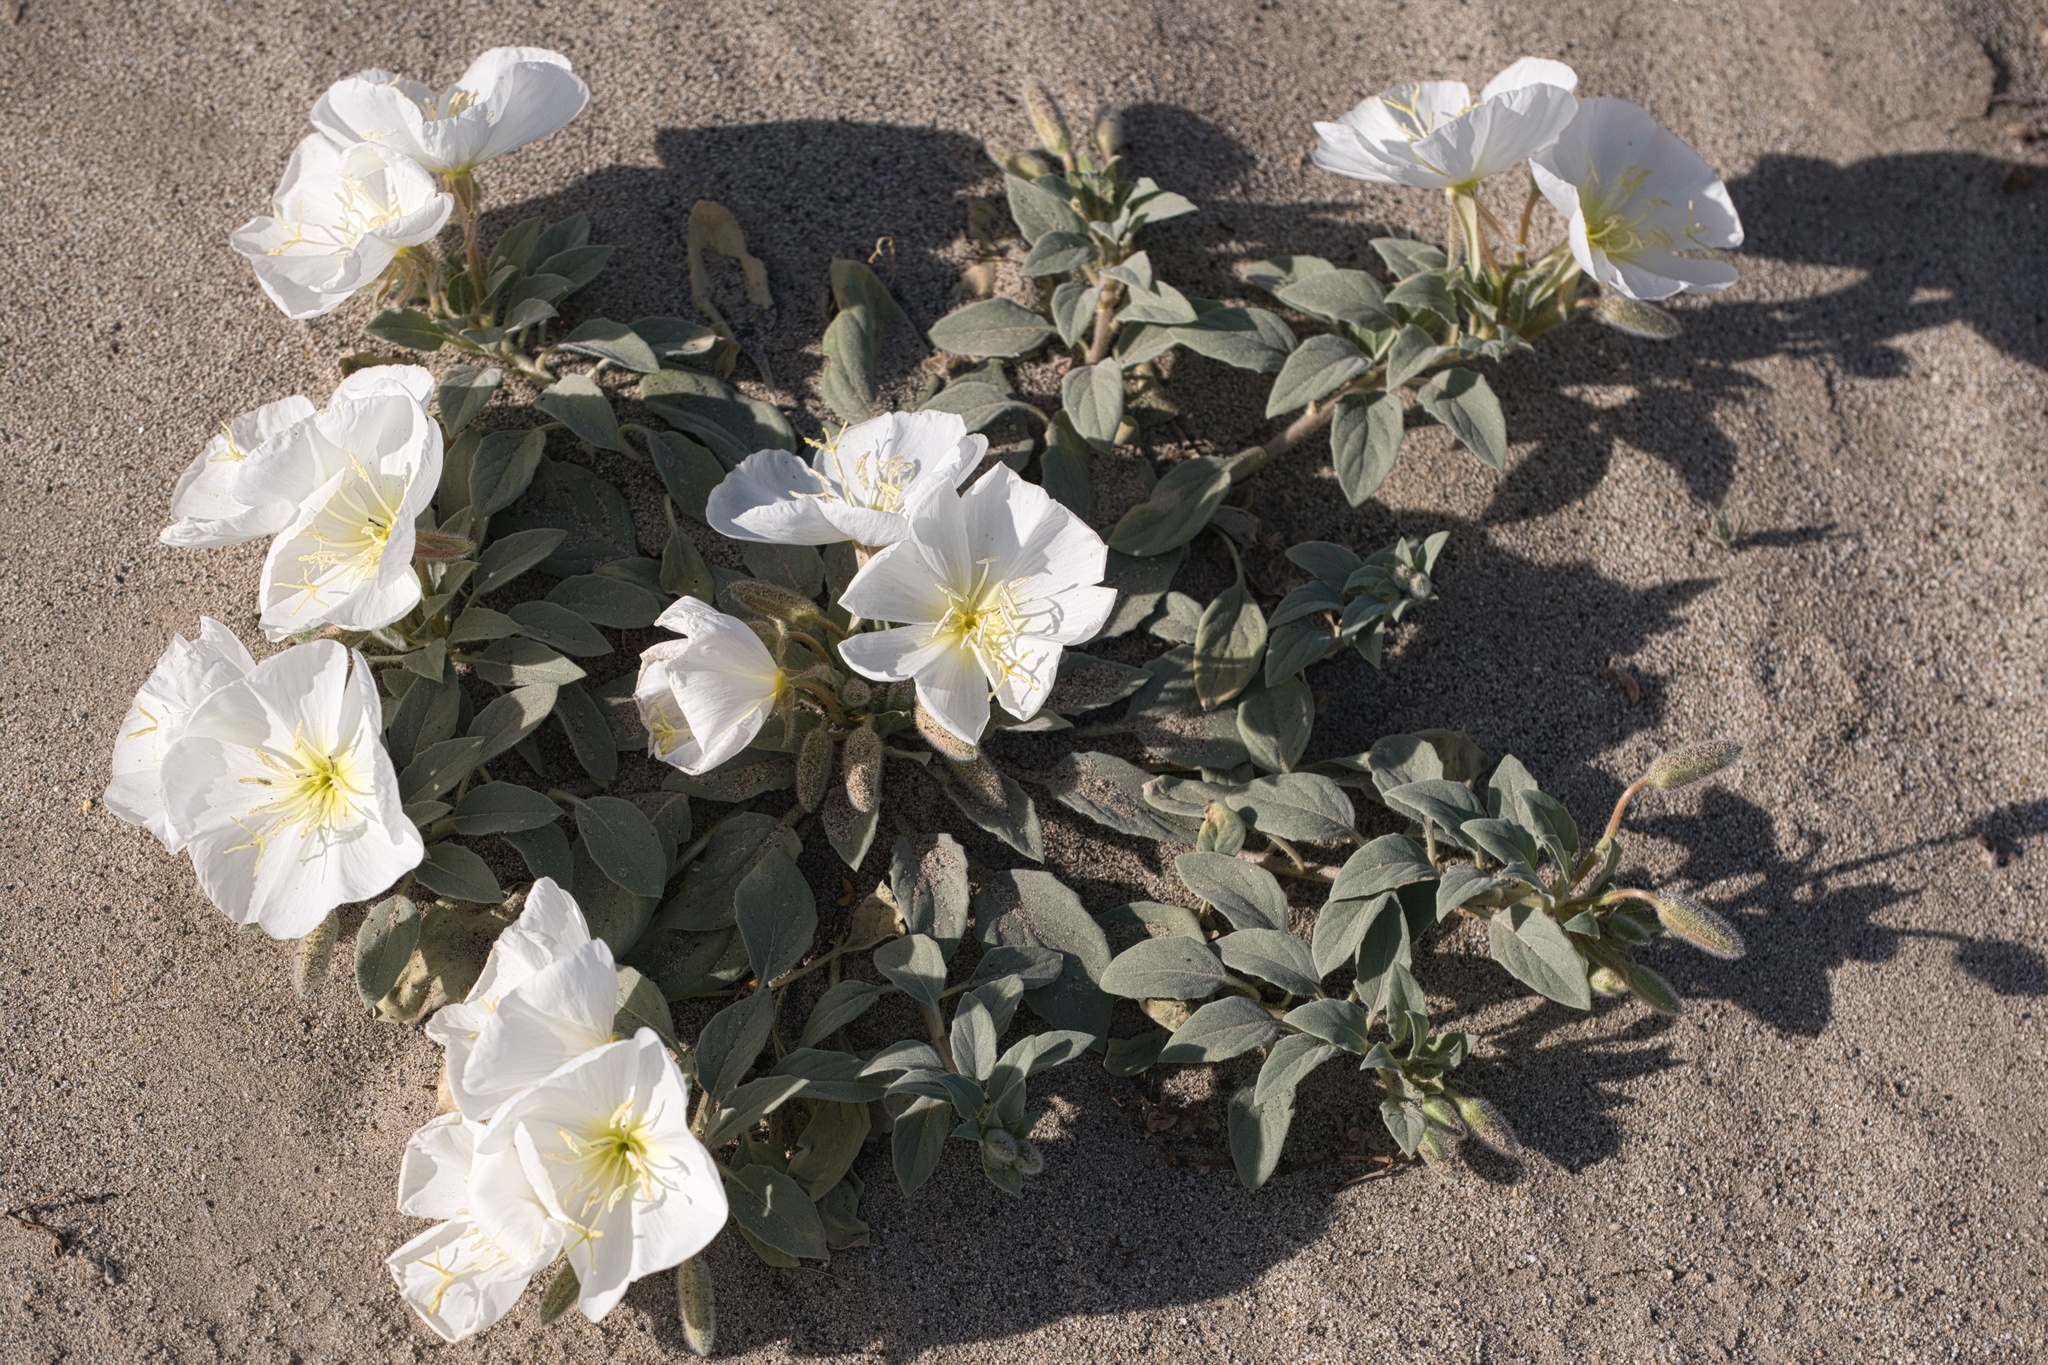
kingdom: Plantae
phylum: Tracheophyta
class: Magnoliopsida
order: Myrtales
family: Onagraceae
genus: Oenothera
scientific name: Oenothera deltoides
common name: Basket evening-primrose
